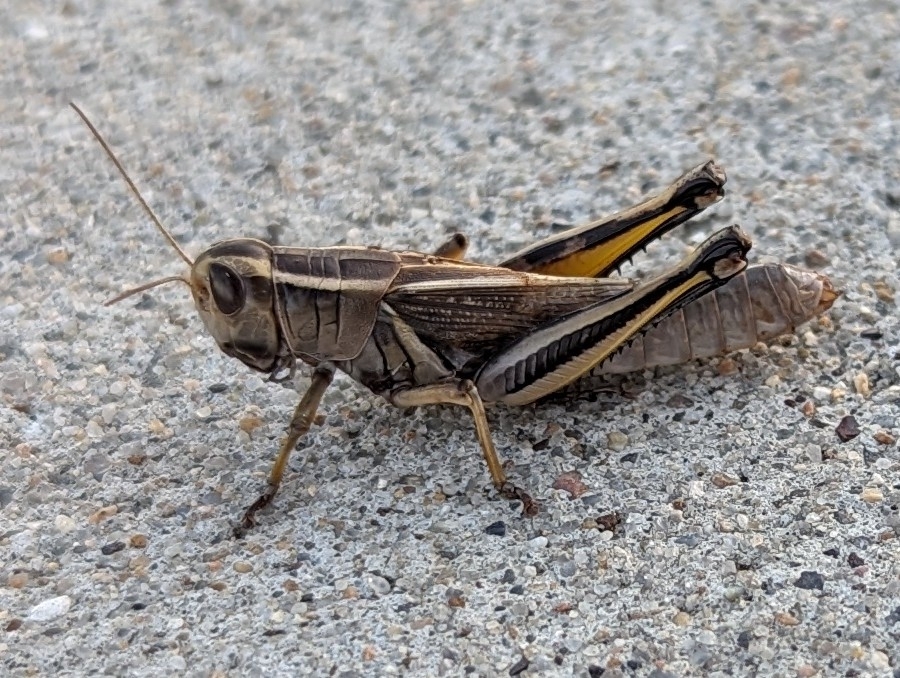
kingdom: Animalia
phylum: Arthropoda
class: Insecta
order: Orthoptera
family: Acrididae
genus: Melanoplus
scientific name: Melanoplus bivittatus
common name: Two-striped grasshopper
